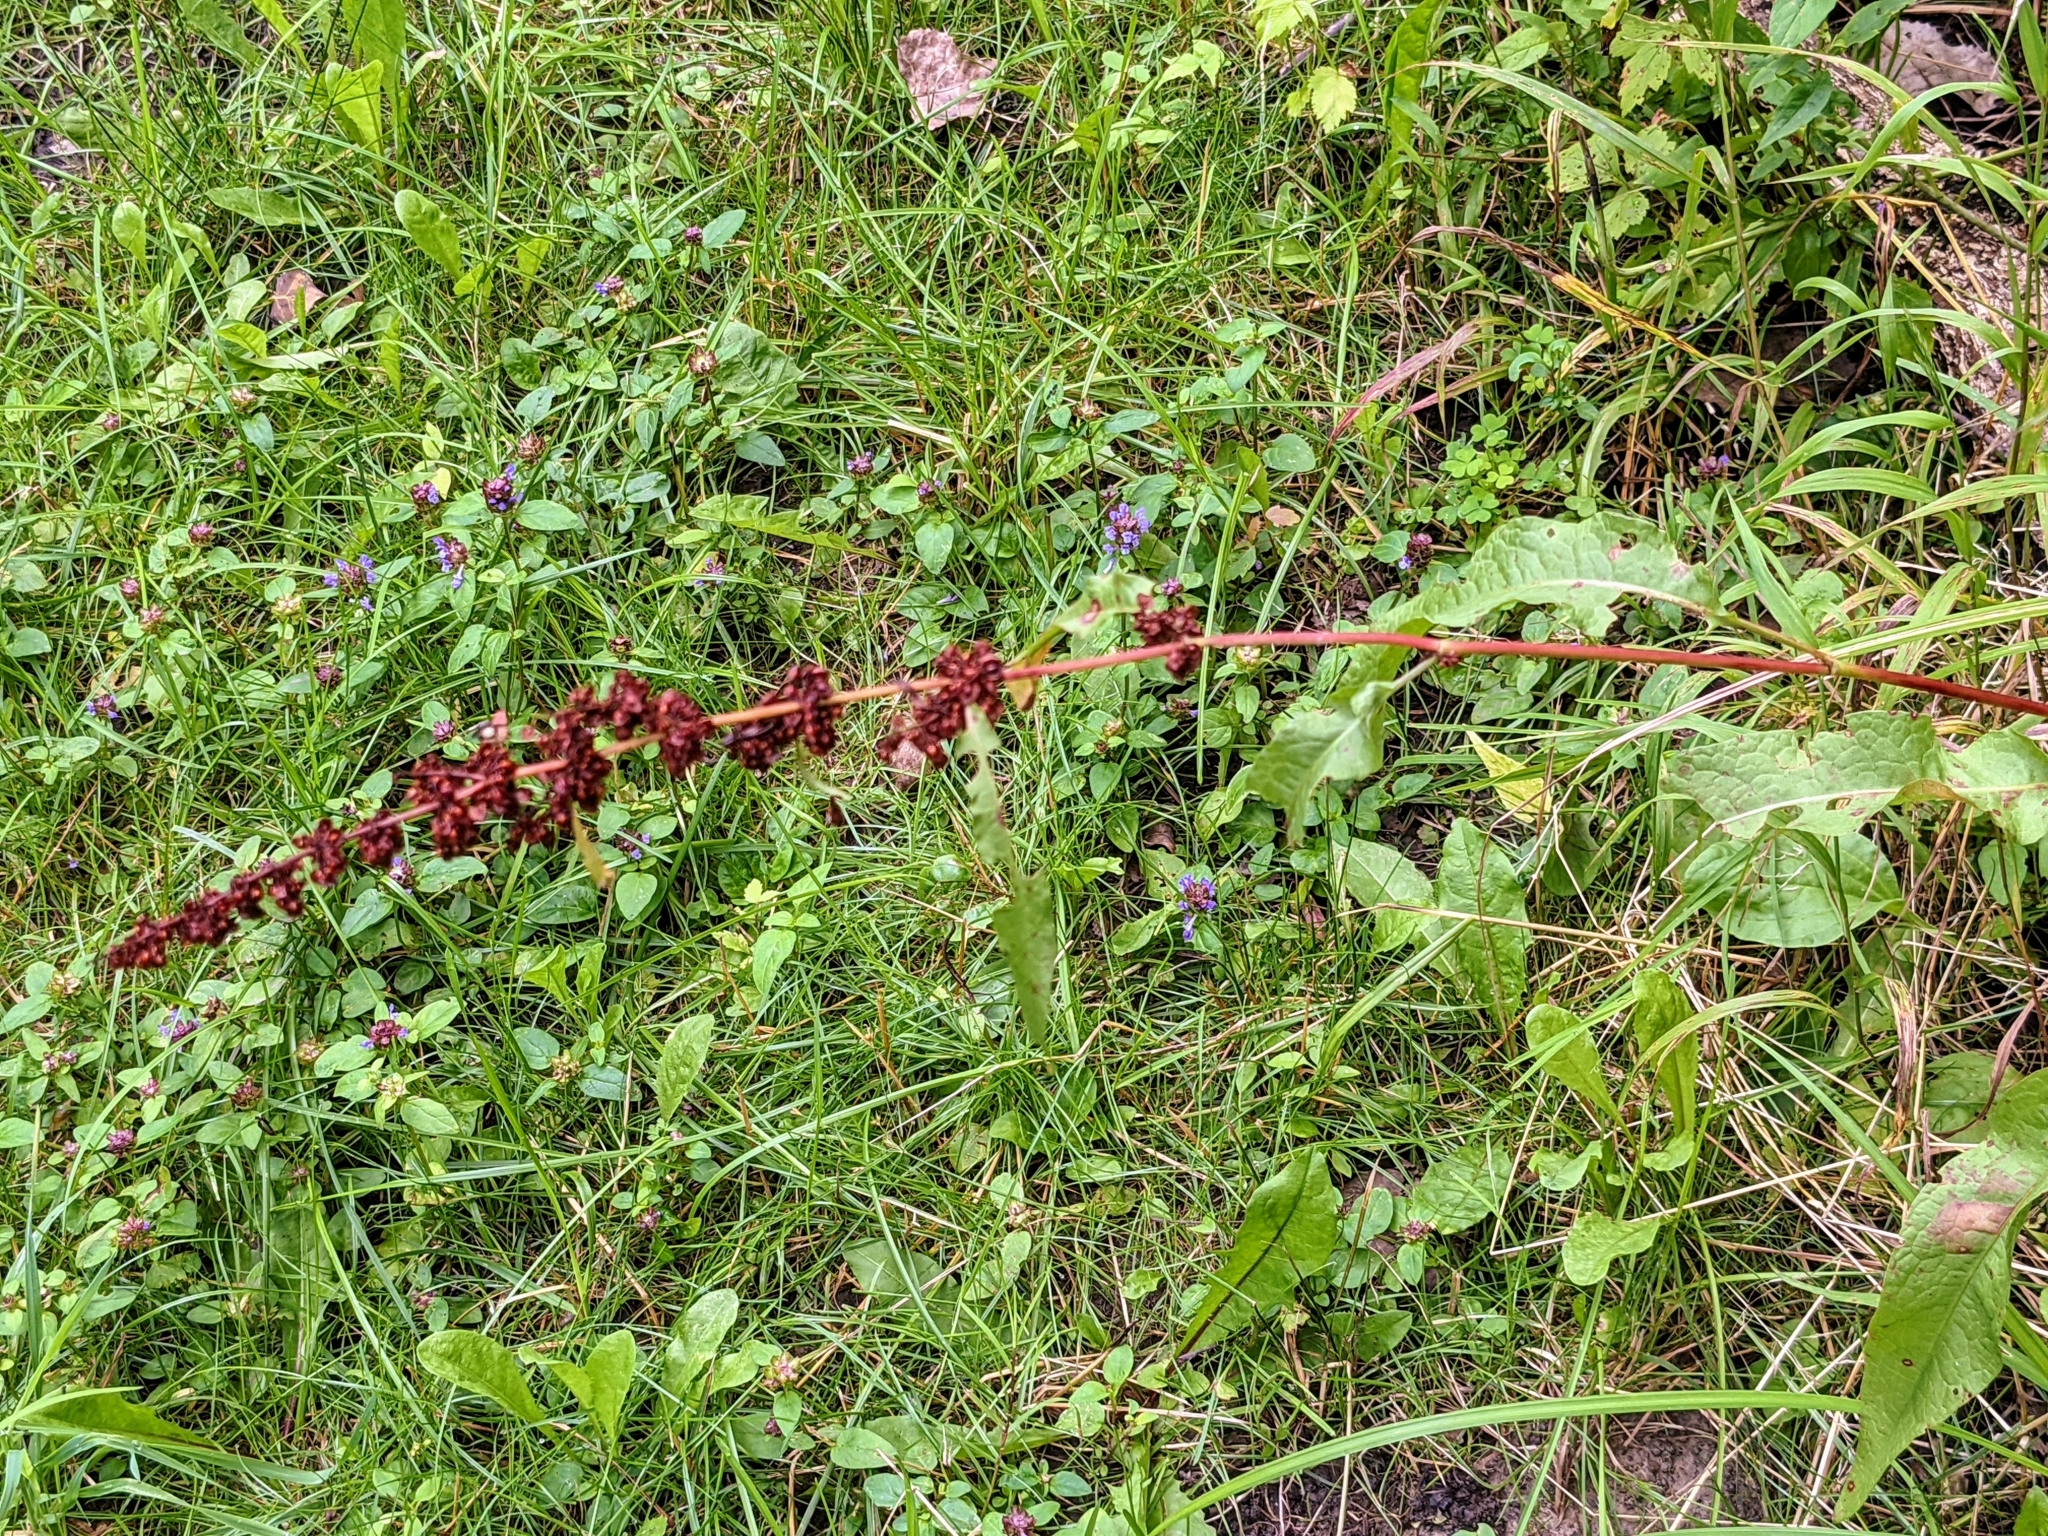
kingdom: Plantae
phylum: Tracheophyta
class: Magnoliopsida
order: Caryophyllales
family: Polygonaceae
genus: Rumex
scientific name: Rumex crispus
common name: Curled dock
